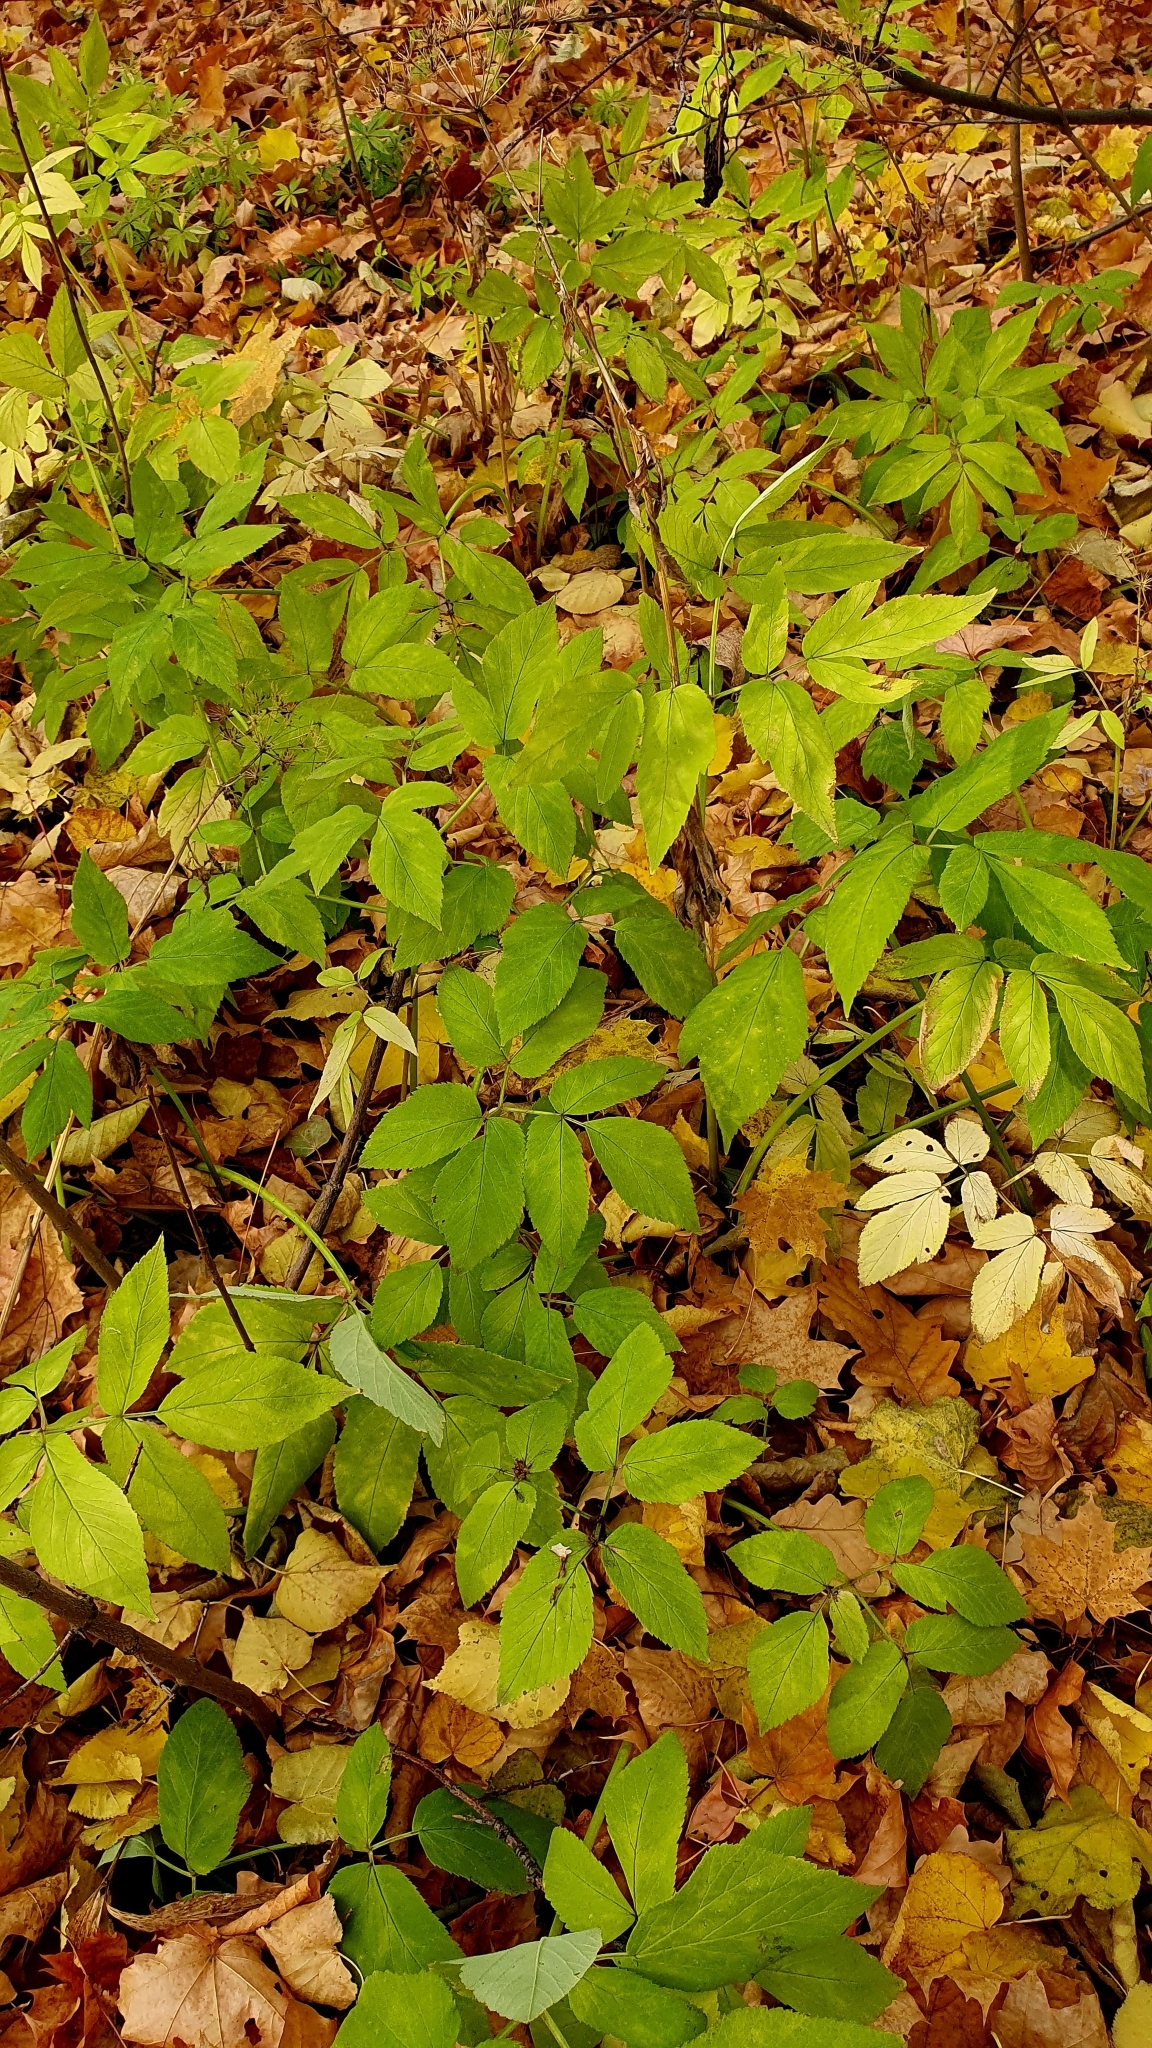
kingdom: Plantae
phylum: Tracheophyta
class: Magnoliopsida
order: Apiales
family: Apiaceae
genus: Aegopodium
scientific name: Aegopodium podagraria
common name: Ground-elder
